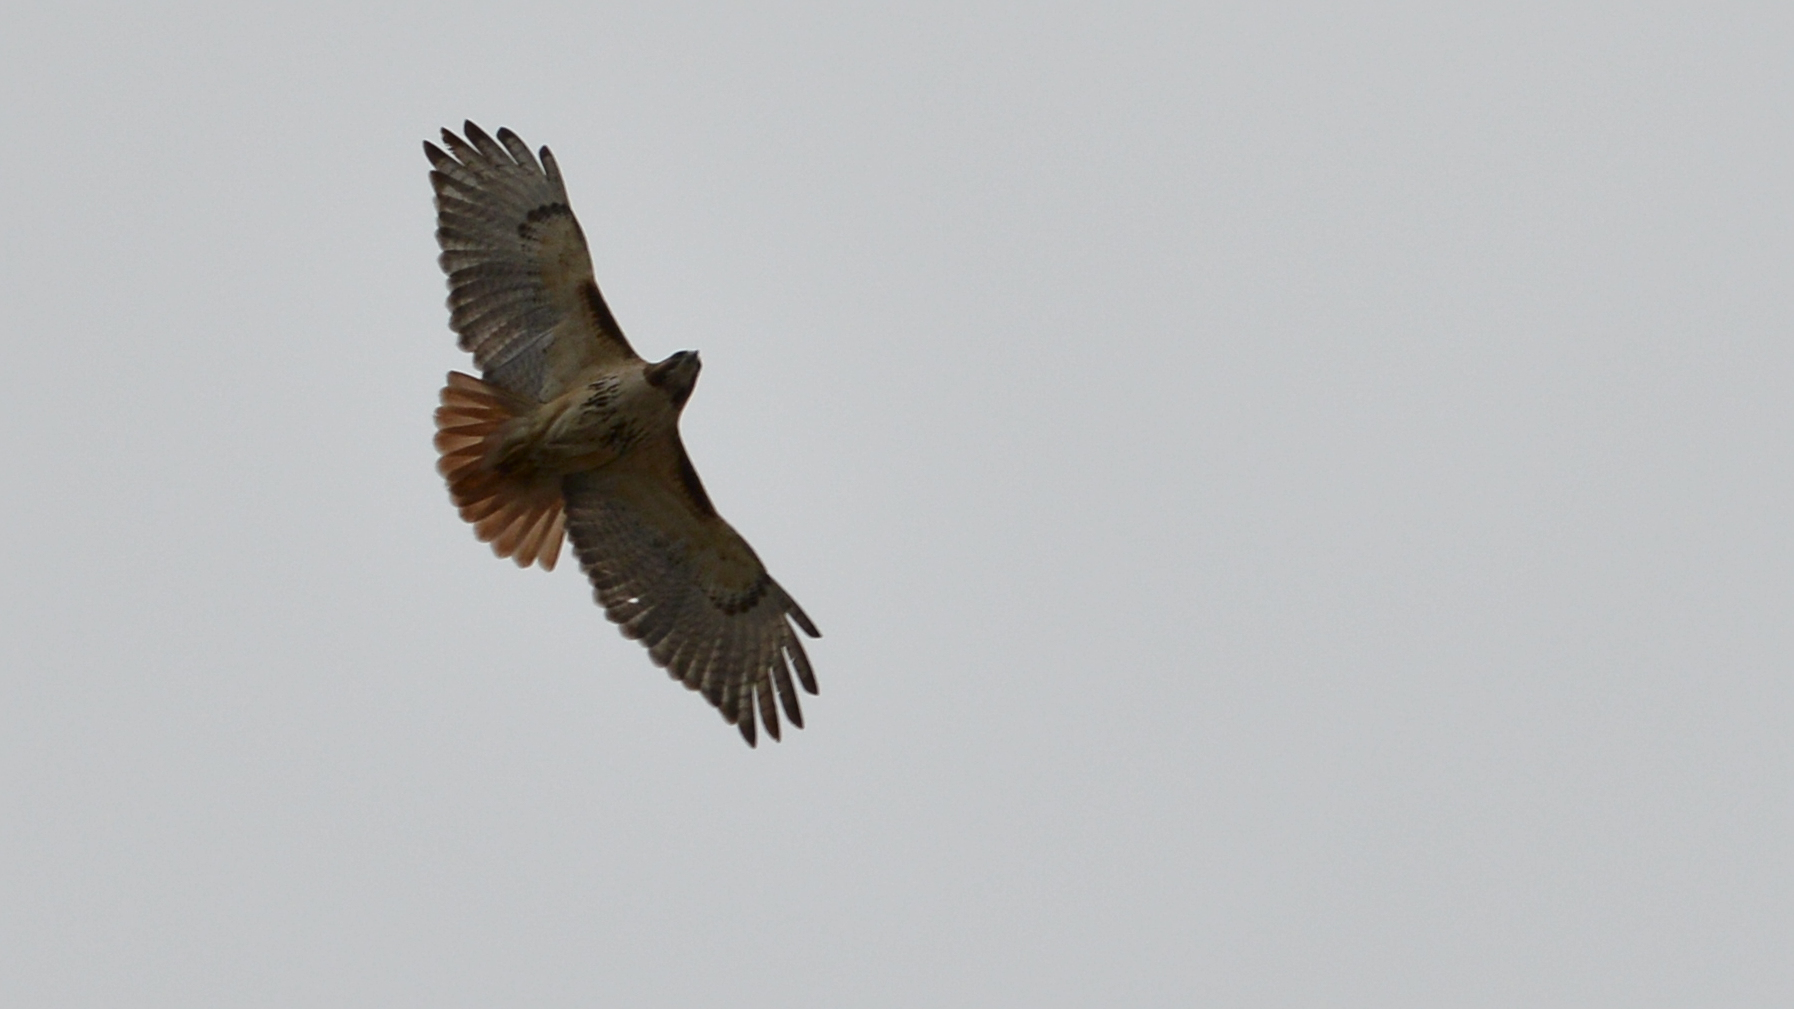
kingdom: Animalia
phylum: Chordata
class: Aves
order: Accipitriformes
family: Accipitridae
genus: Buteo
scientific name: Buteo jamaicensis
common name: Red-tailed hawk
